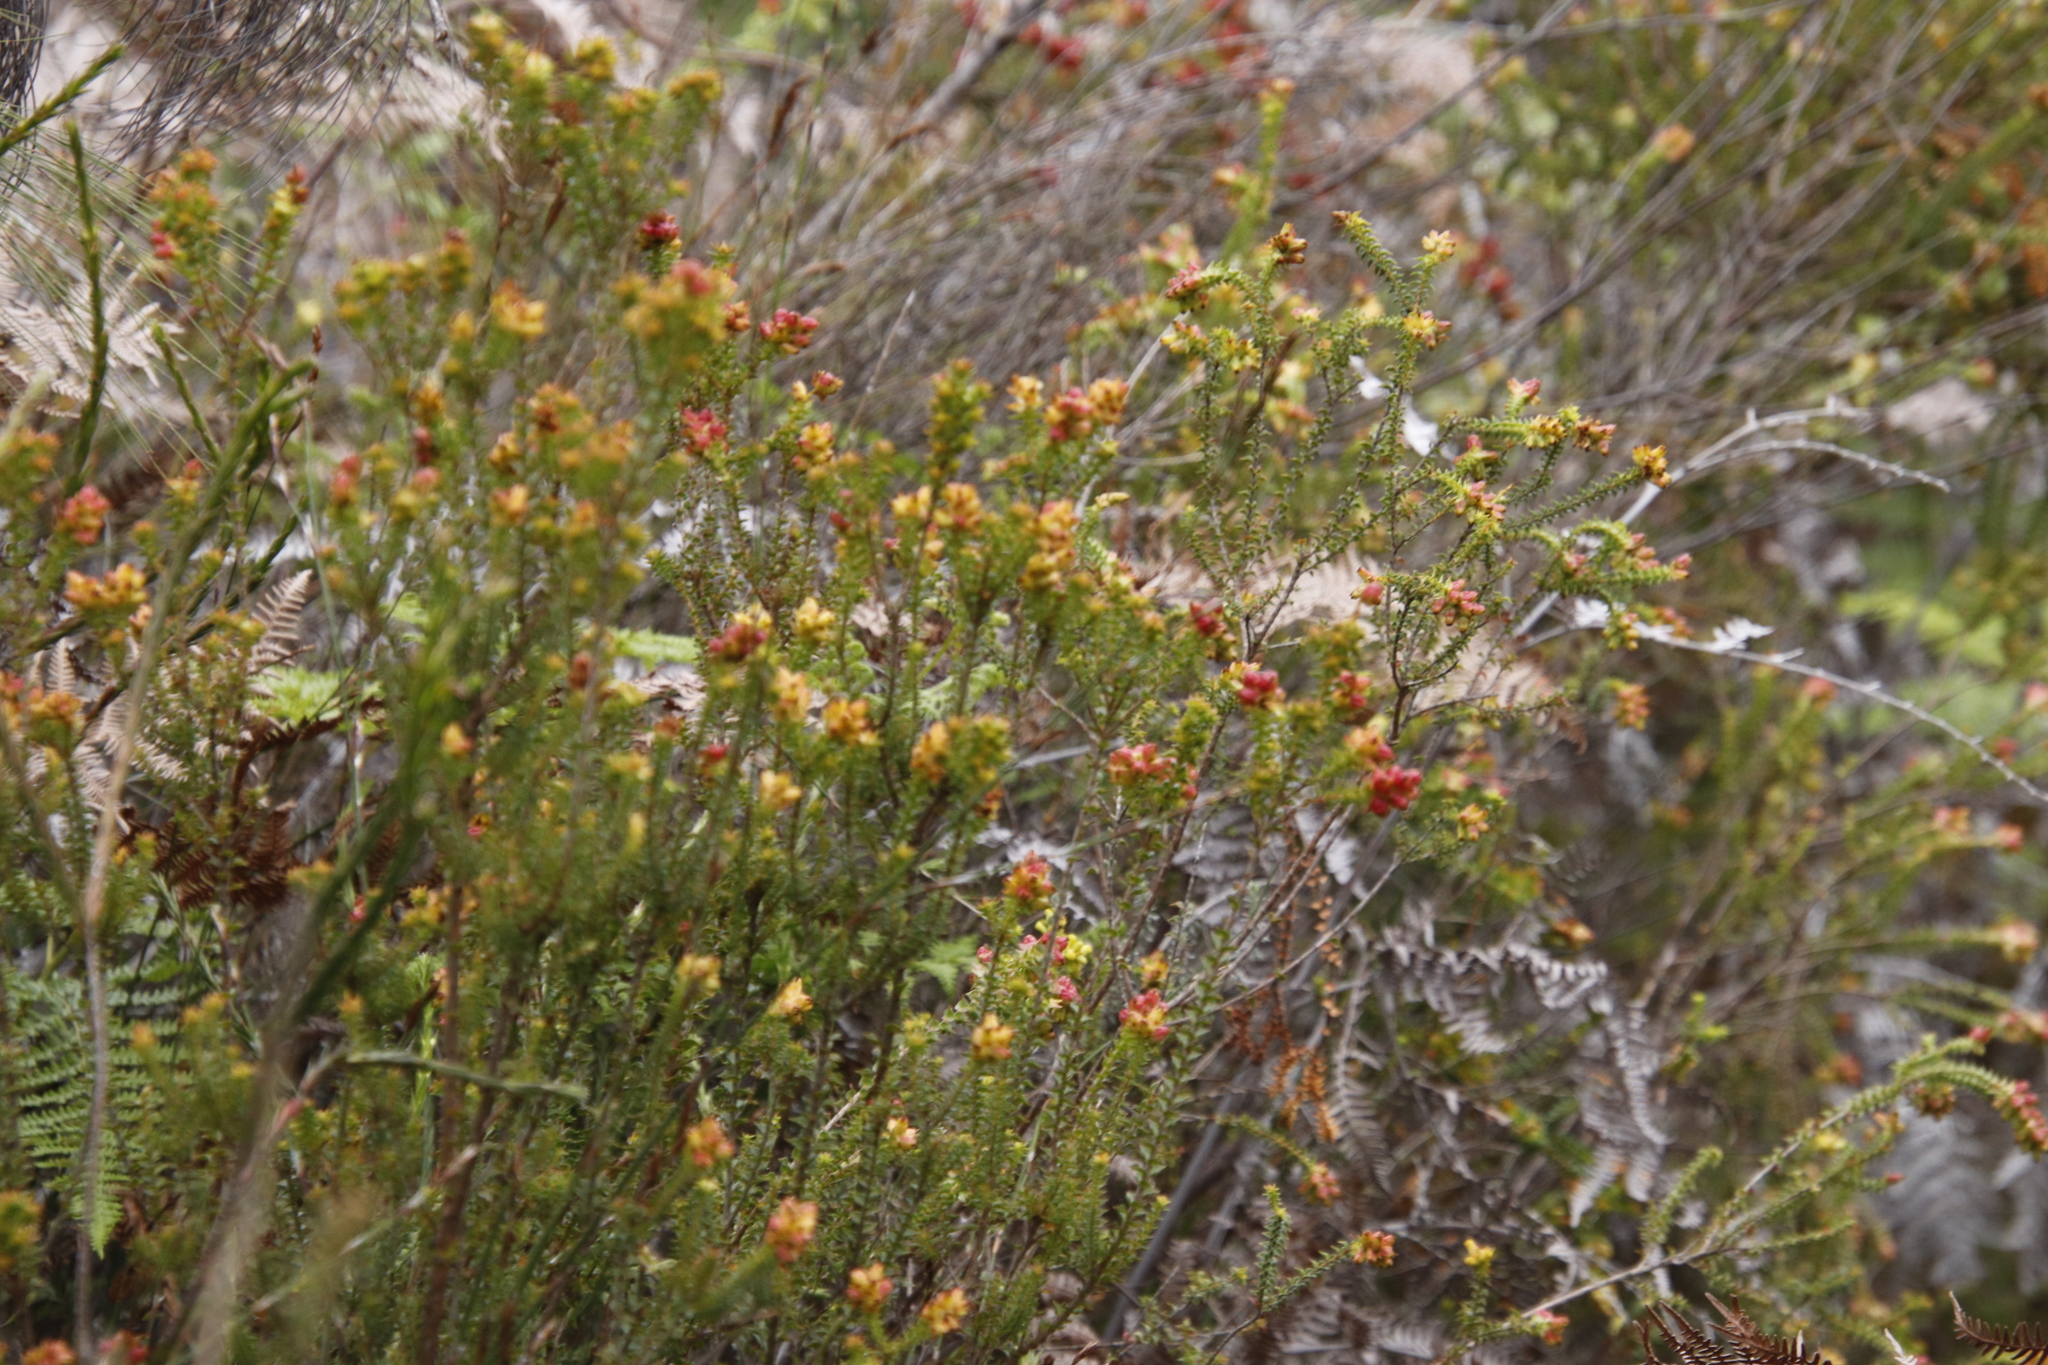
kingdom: Plantae
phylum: Tracheophyta
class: Magnoliopsida
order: Myrtales
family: Penaeaceae
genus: Penaea
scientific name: Penaea mucronata
